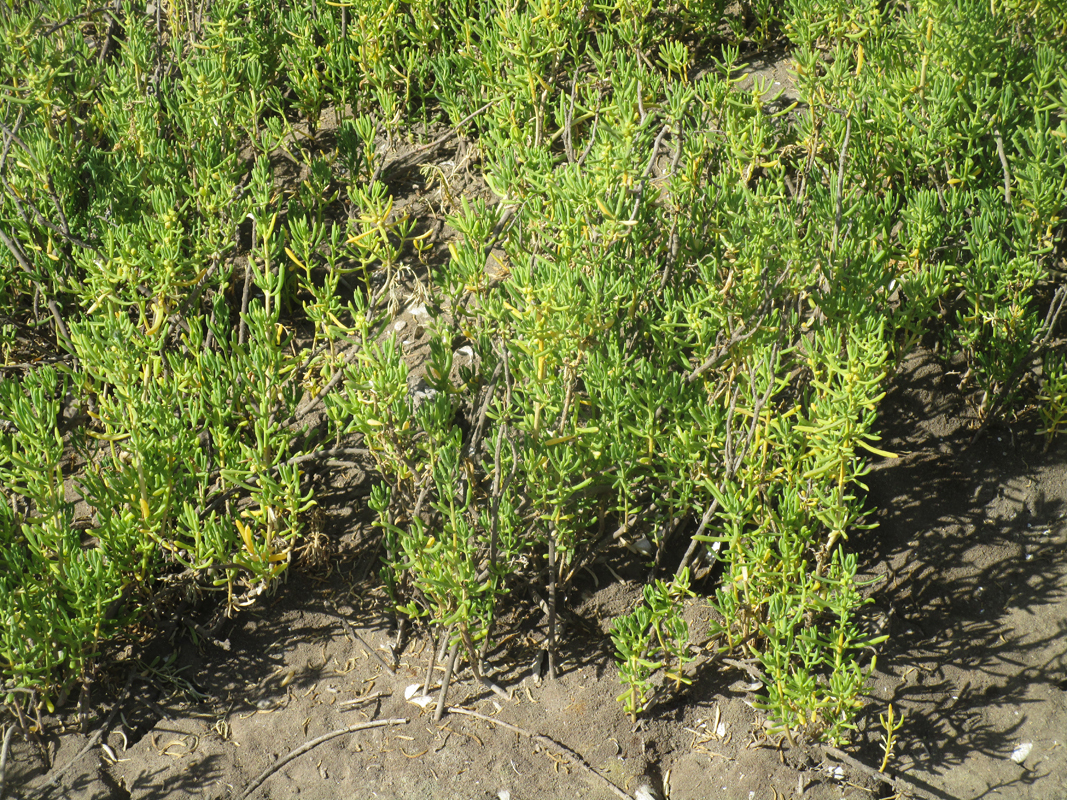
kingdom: Plantae
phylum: Tracheophyta
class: Magnoliopsida
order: Brassicales
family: Bataceae
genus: Batis
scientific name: Batis maritima
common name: Turtleweed
